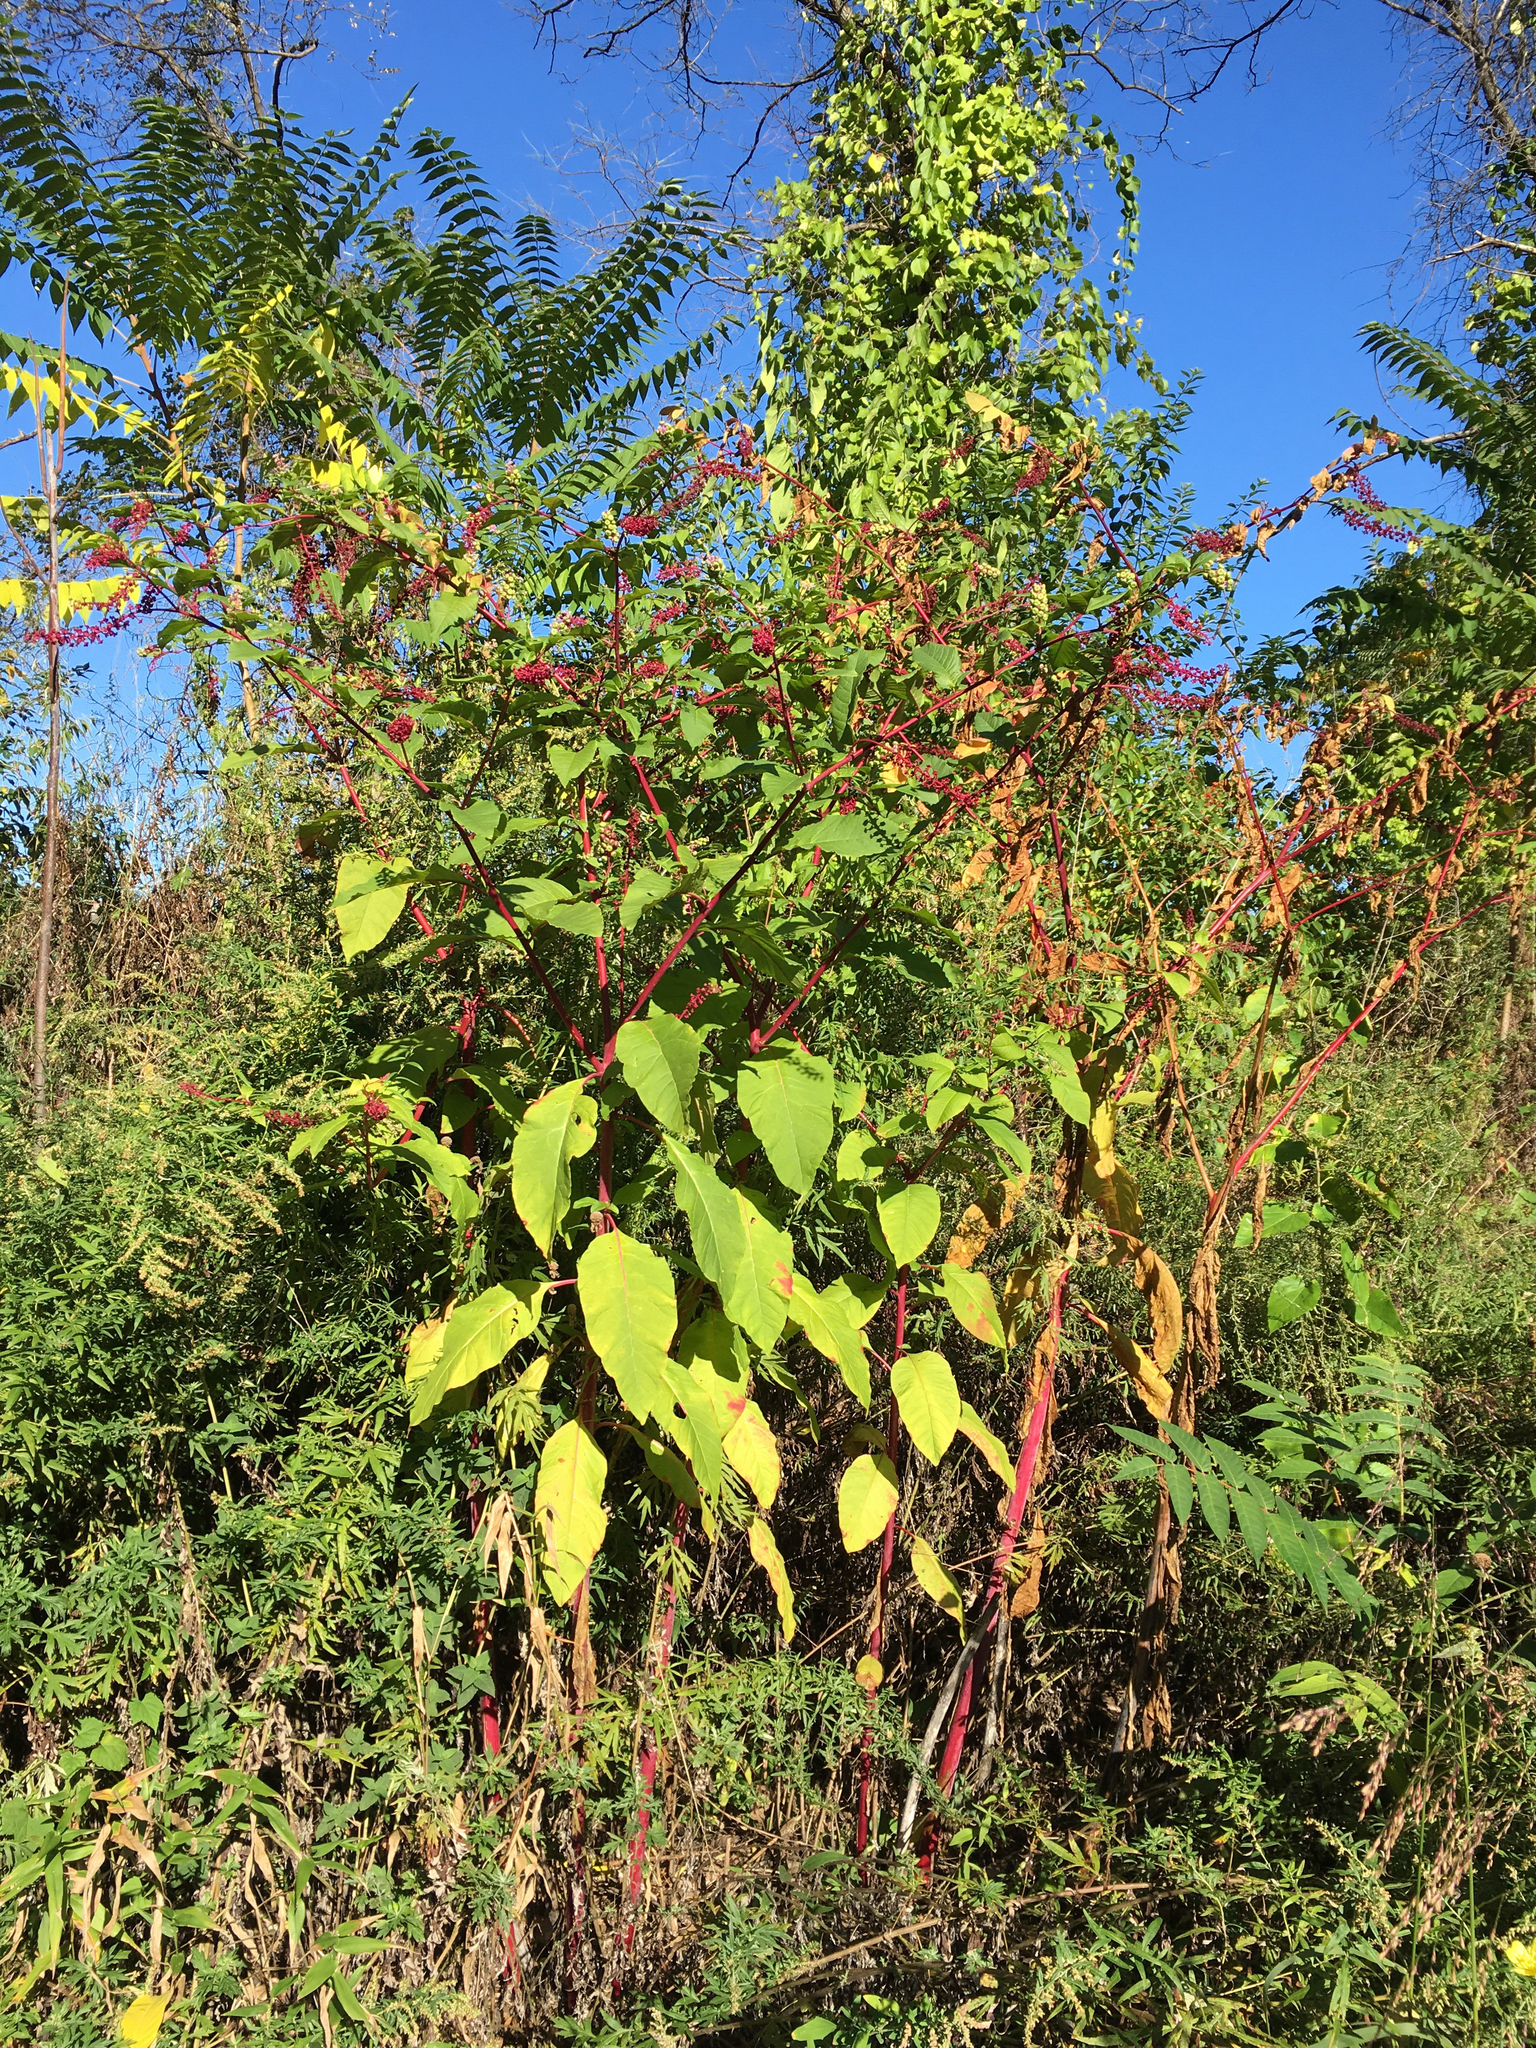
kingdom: Plantae
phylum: Tracheophyta
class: Magnoliopsida
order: Caryophyllales
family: Phytolaccaceae
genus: Phytolacca
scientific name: Phytolacca americana
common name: American pokeweed
